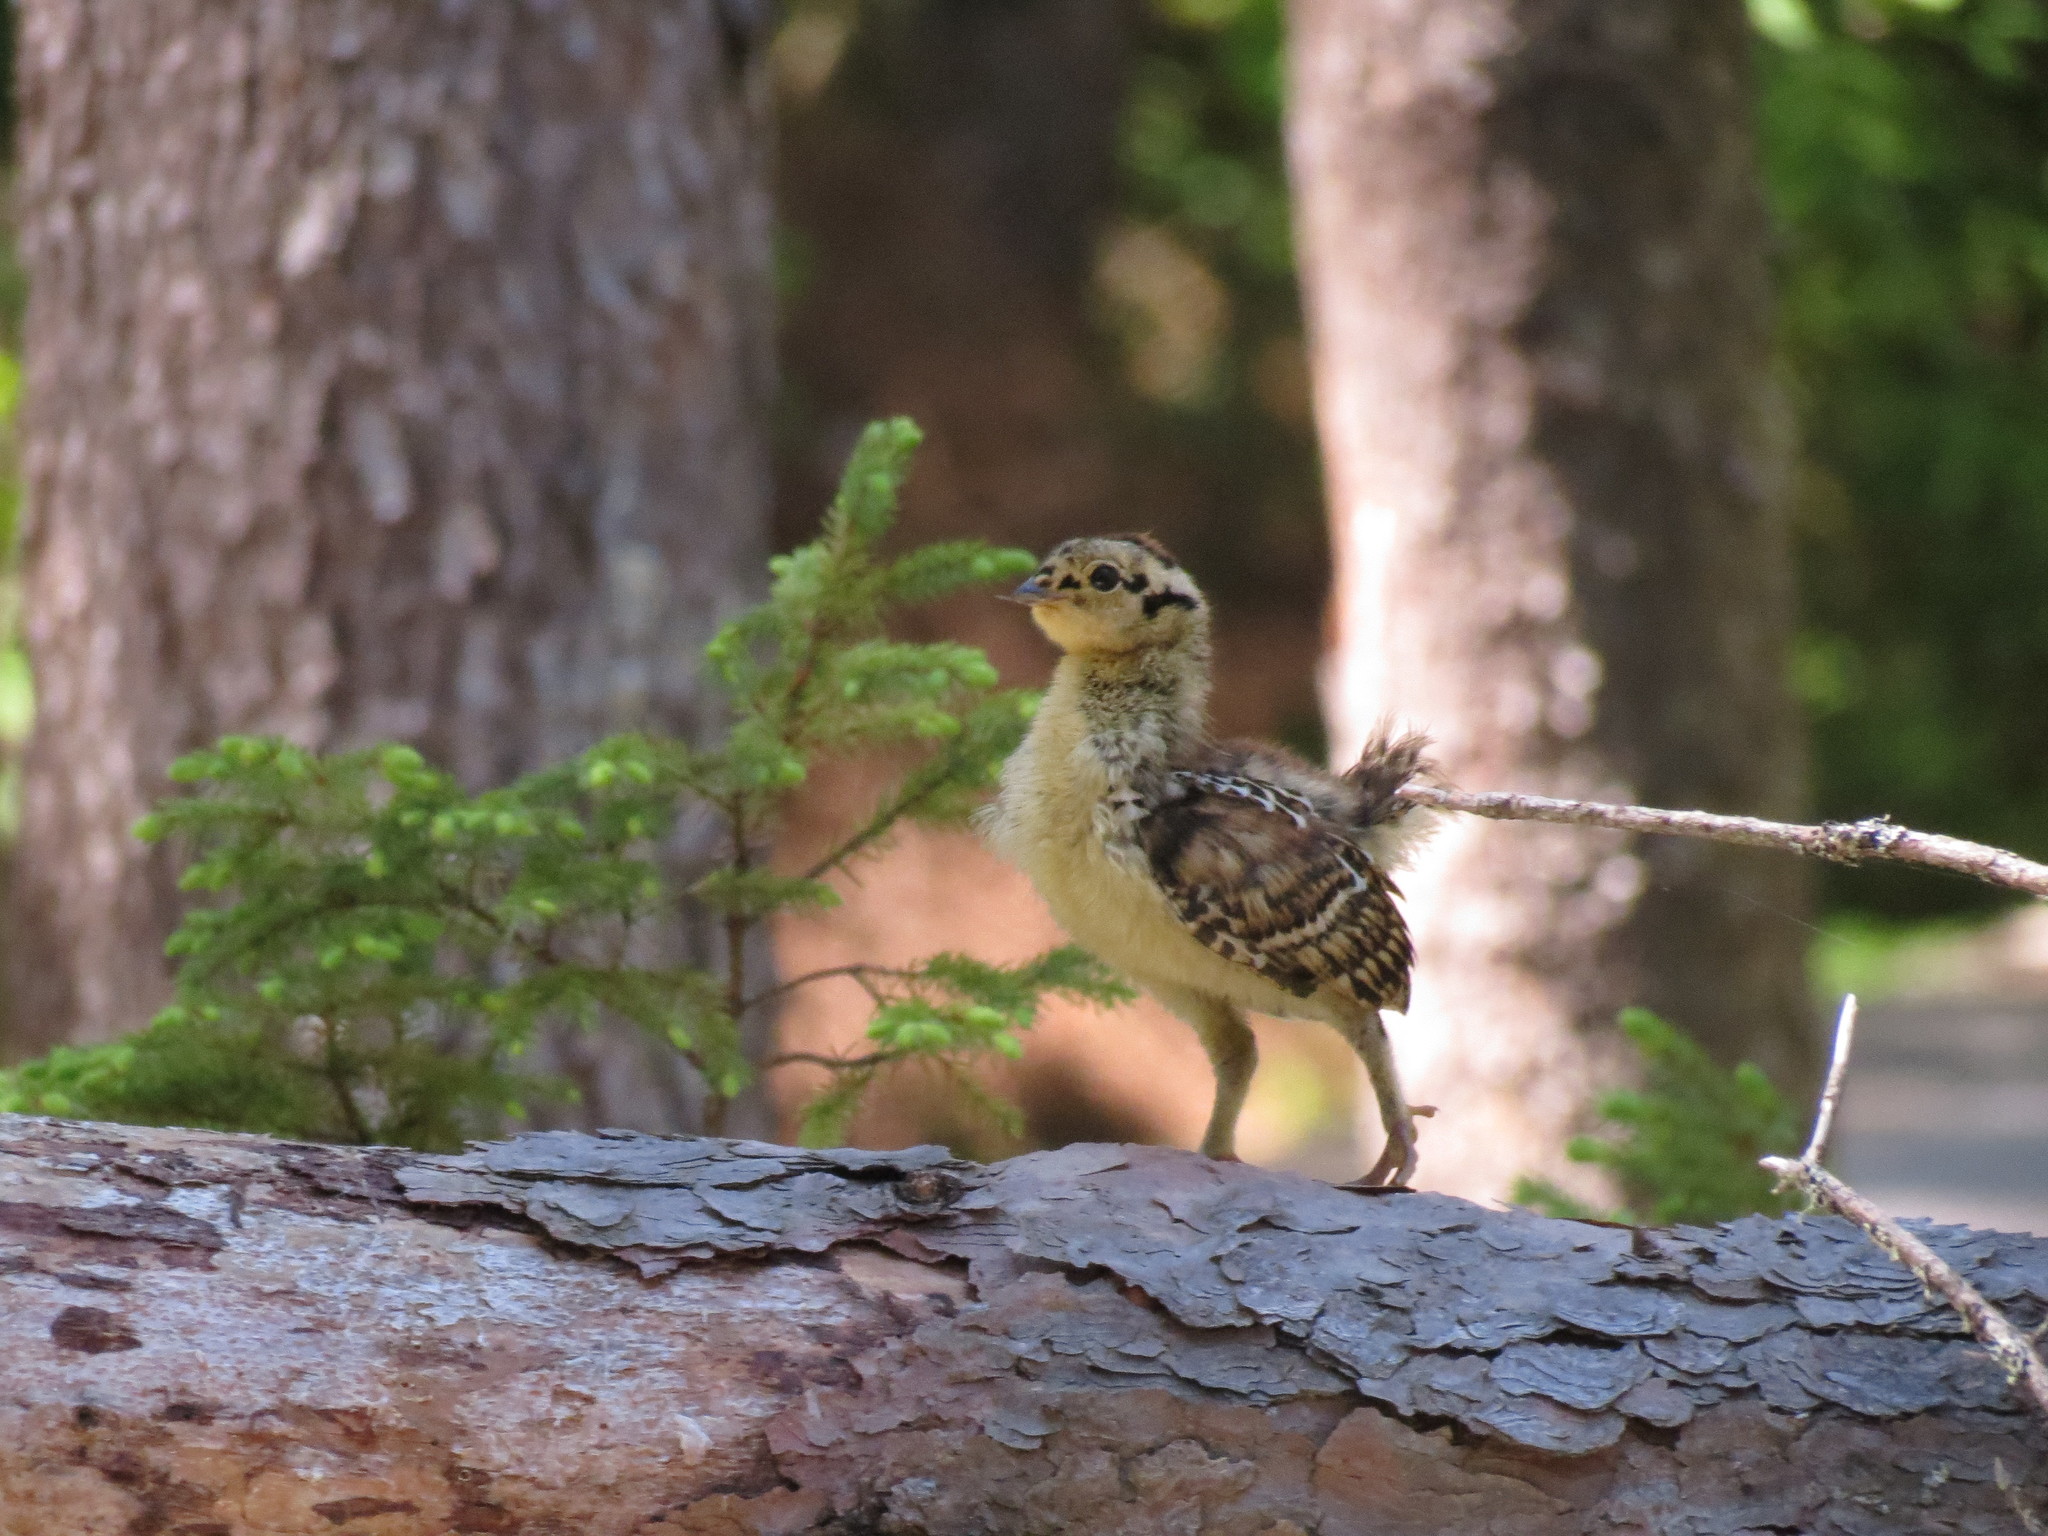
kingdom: Animalia
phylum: Chordata
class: Aves
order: Galliformes
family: Phasianidae
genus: Canachites
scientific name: Canachites canadensis
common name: Spruce grouse
